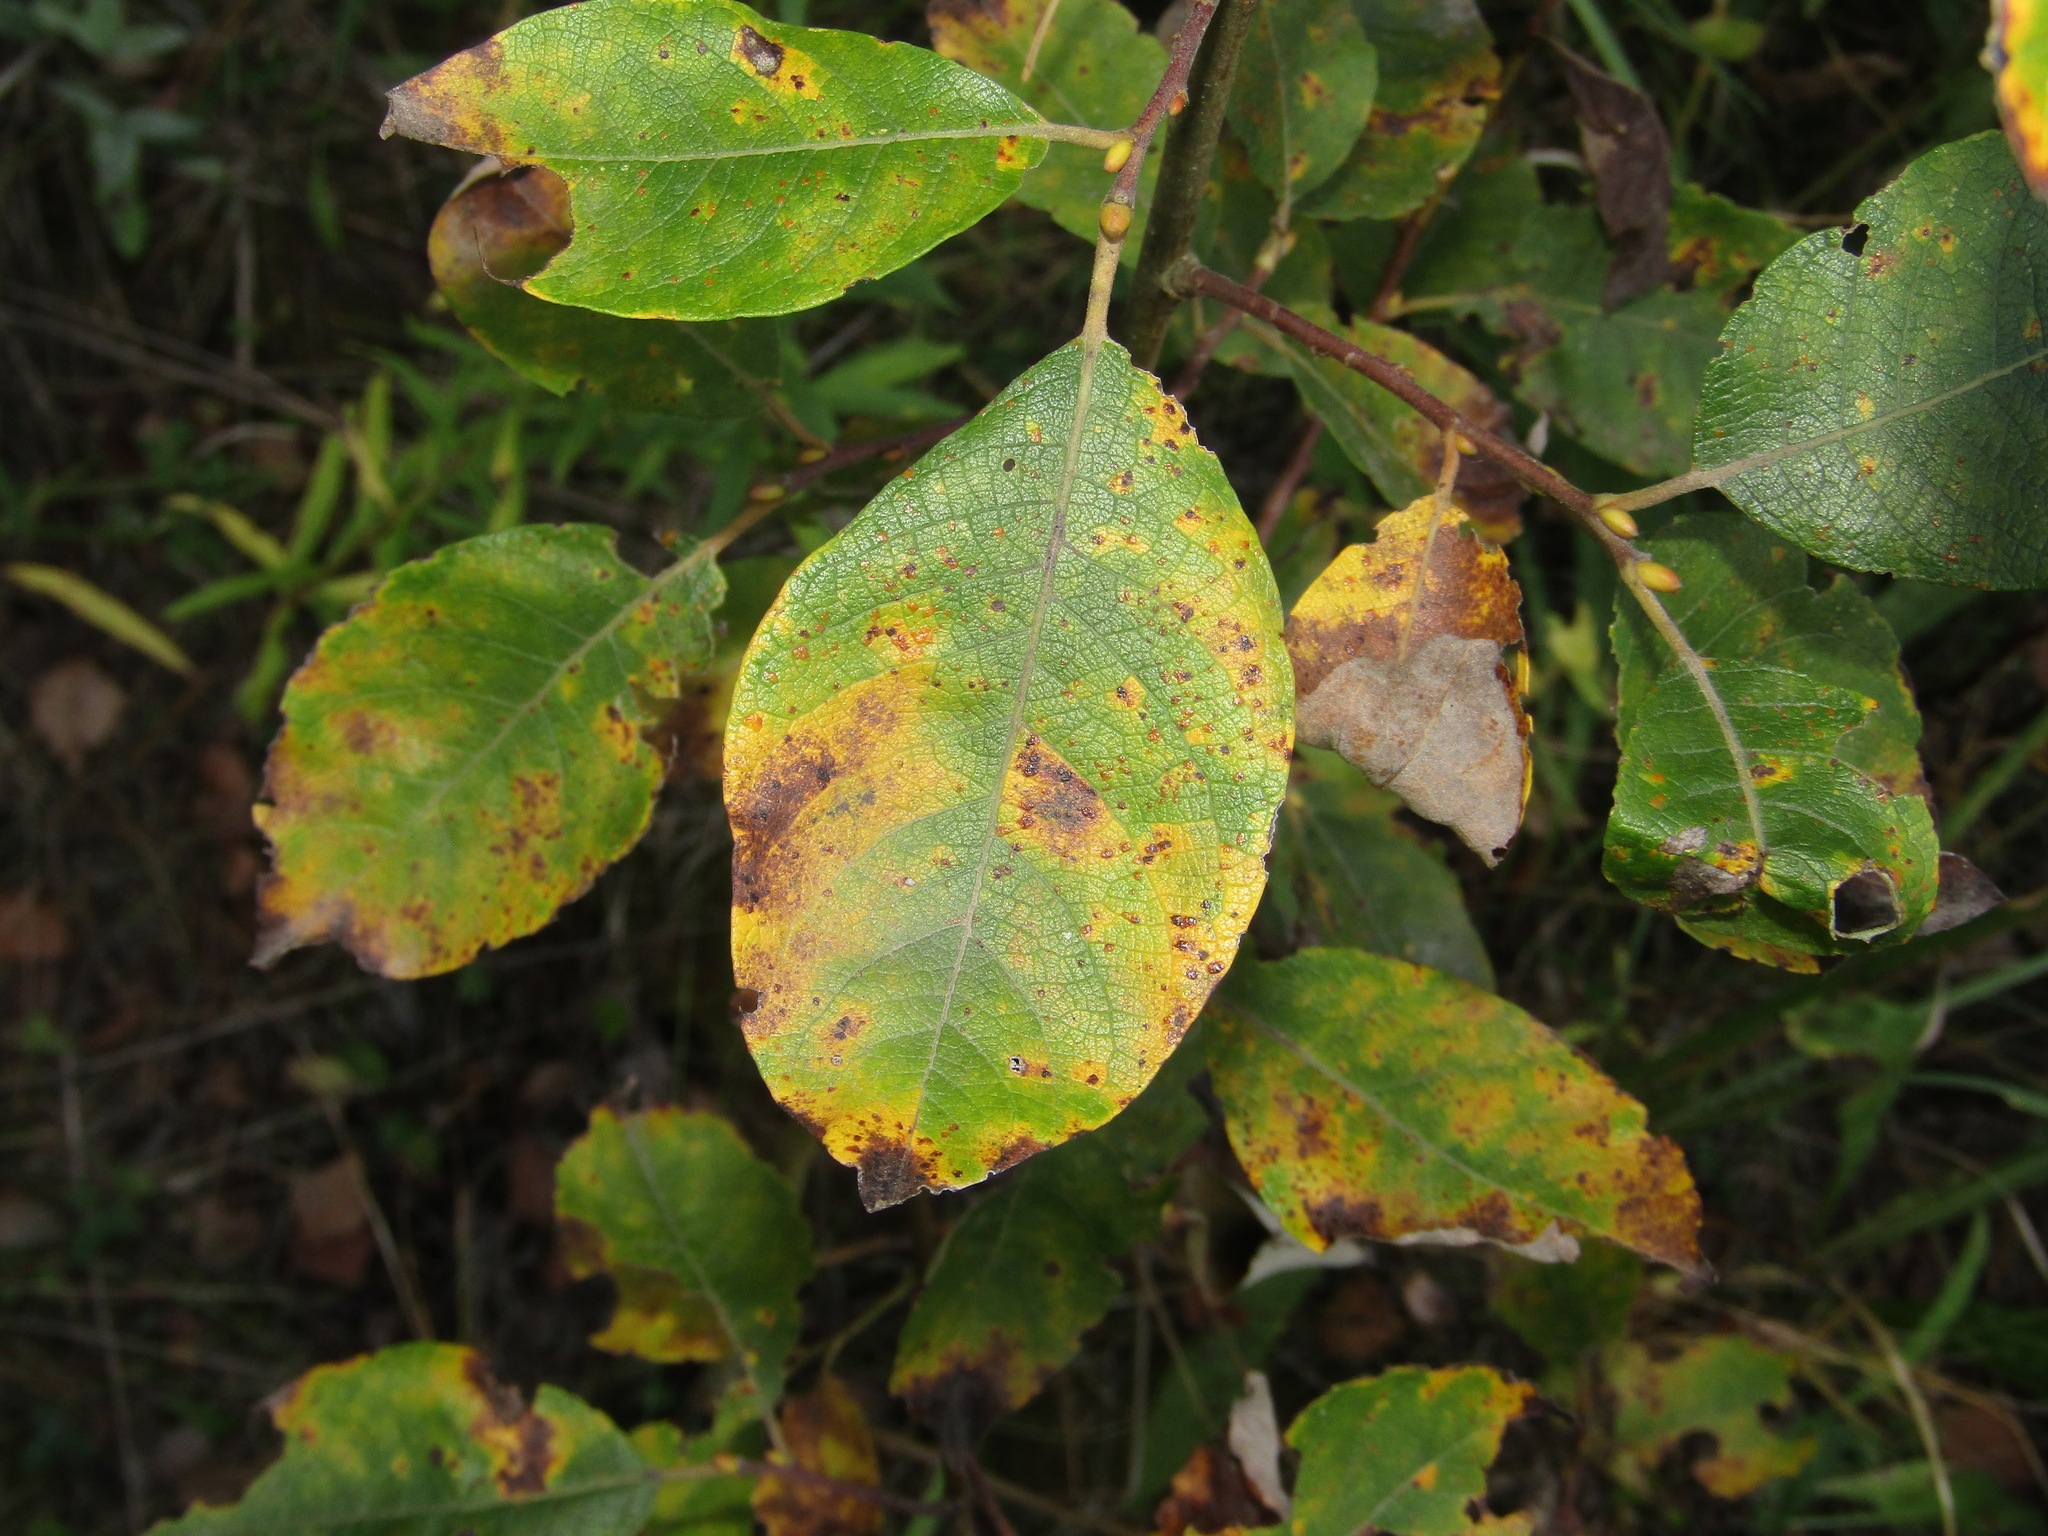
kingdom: Plantae
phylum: Tracheophyta
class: Magnoliopsida
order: Malpighiales
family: Salicaceae
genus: Salix
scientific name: Salix caprea
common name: Goat willow
